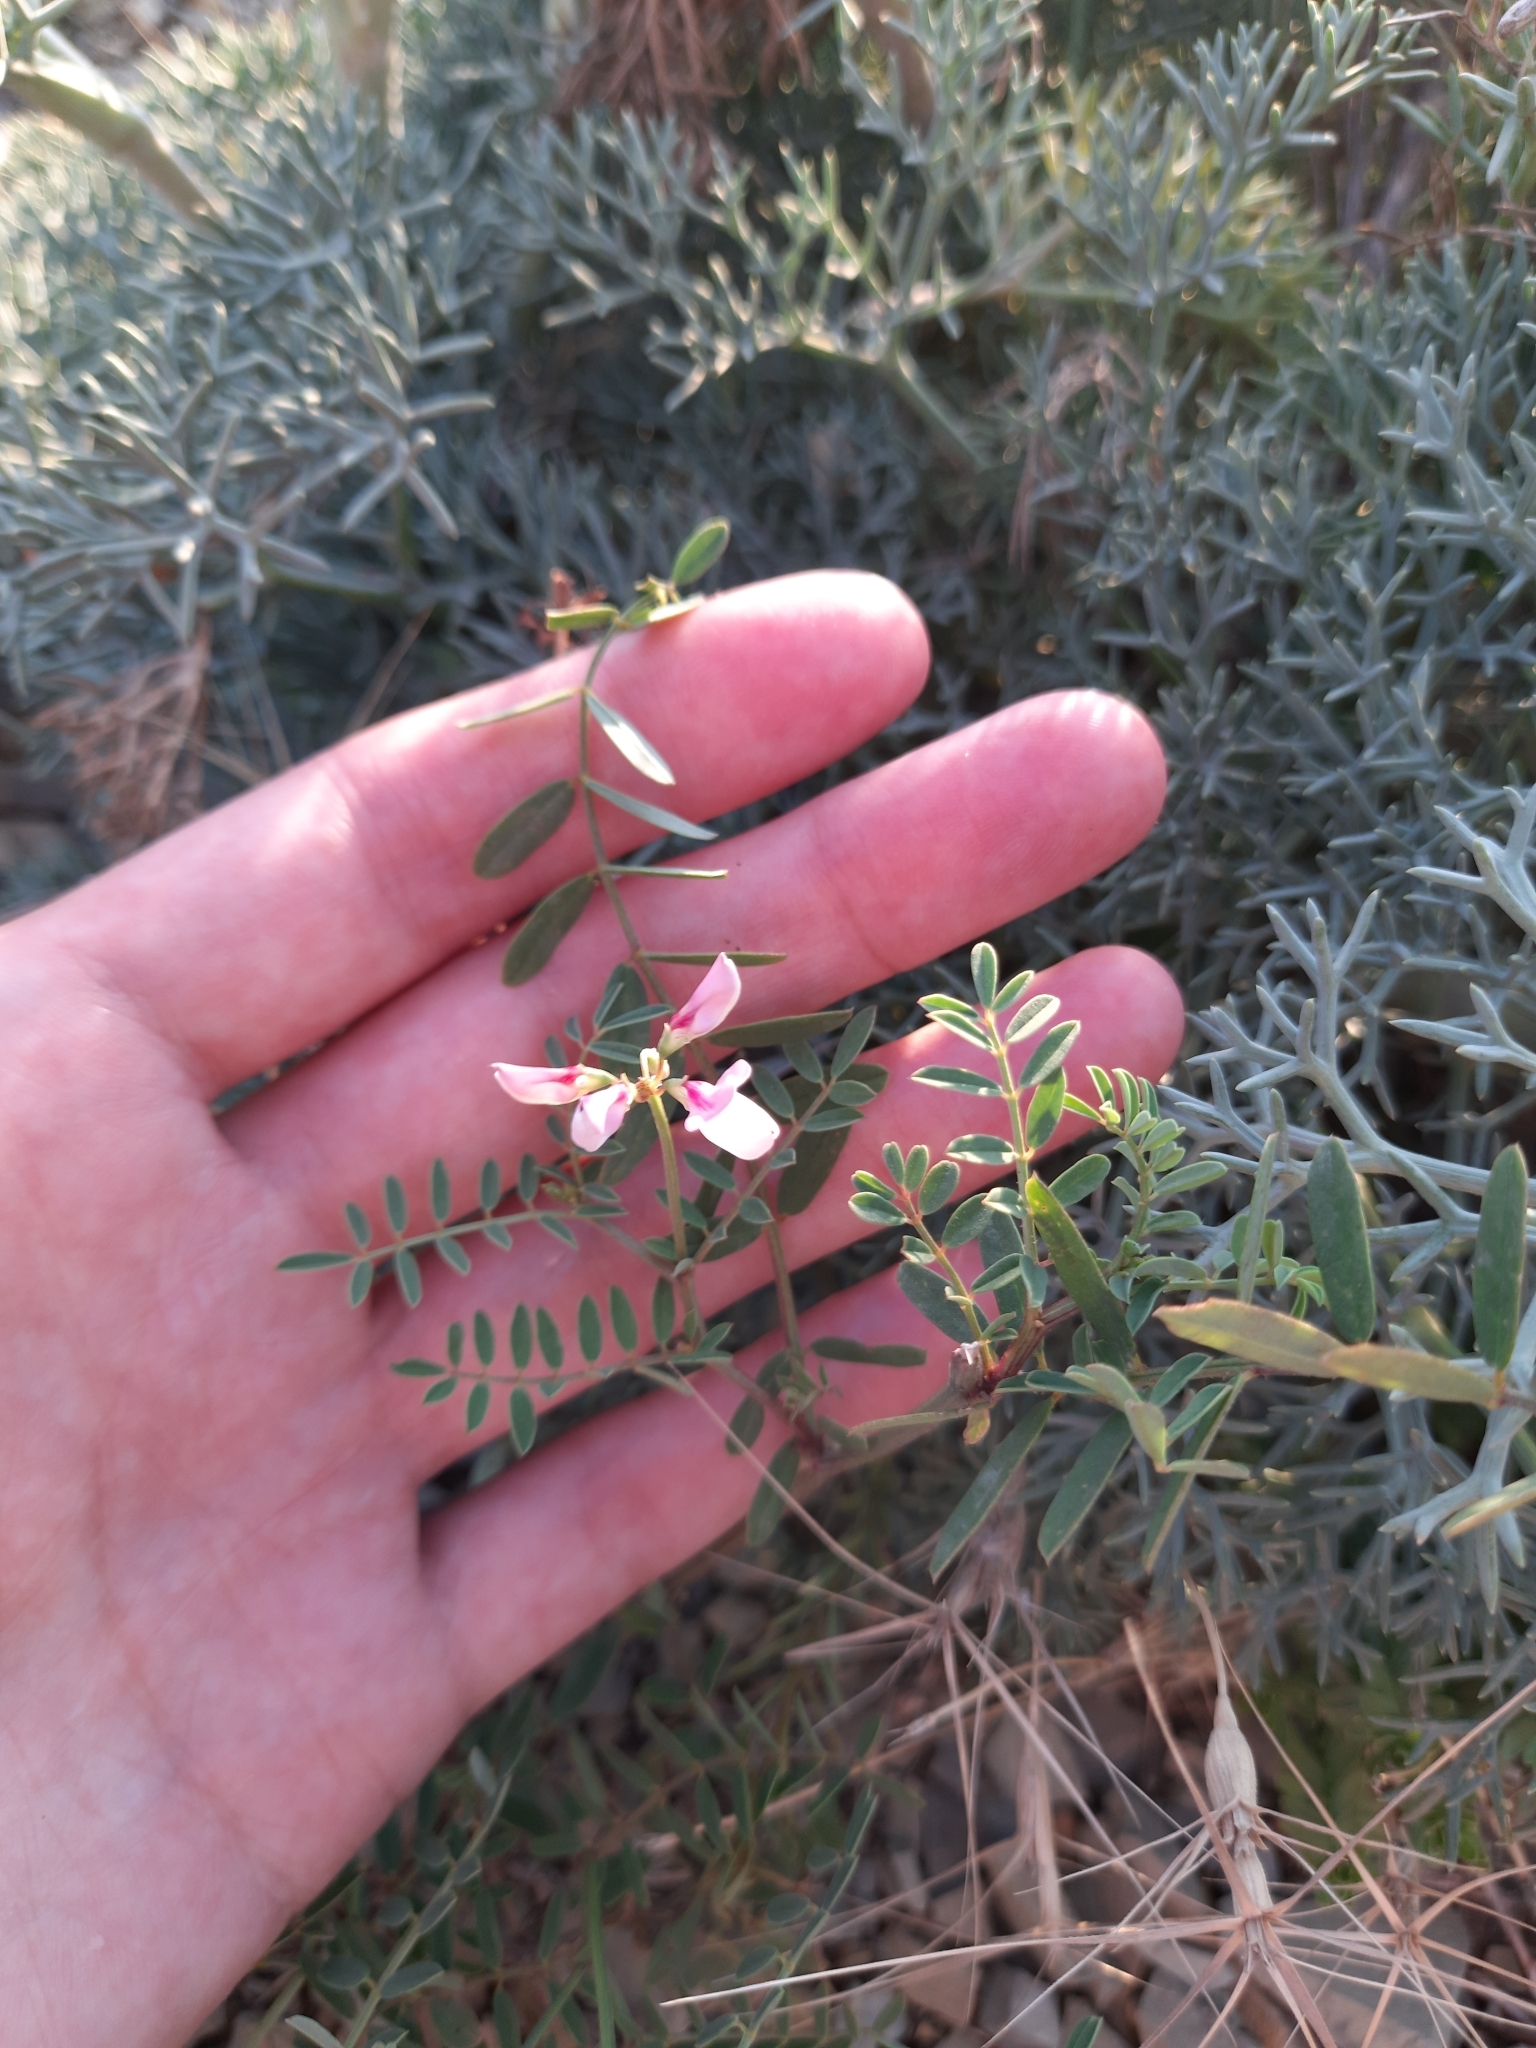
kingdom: Plantae
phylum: Tracheophyta
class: Magnoliopsida
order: Fabales
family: Fabaceae
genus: Coronilla
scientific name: Coronilla varia
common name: Crownvetch
